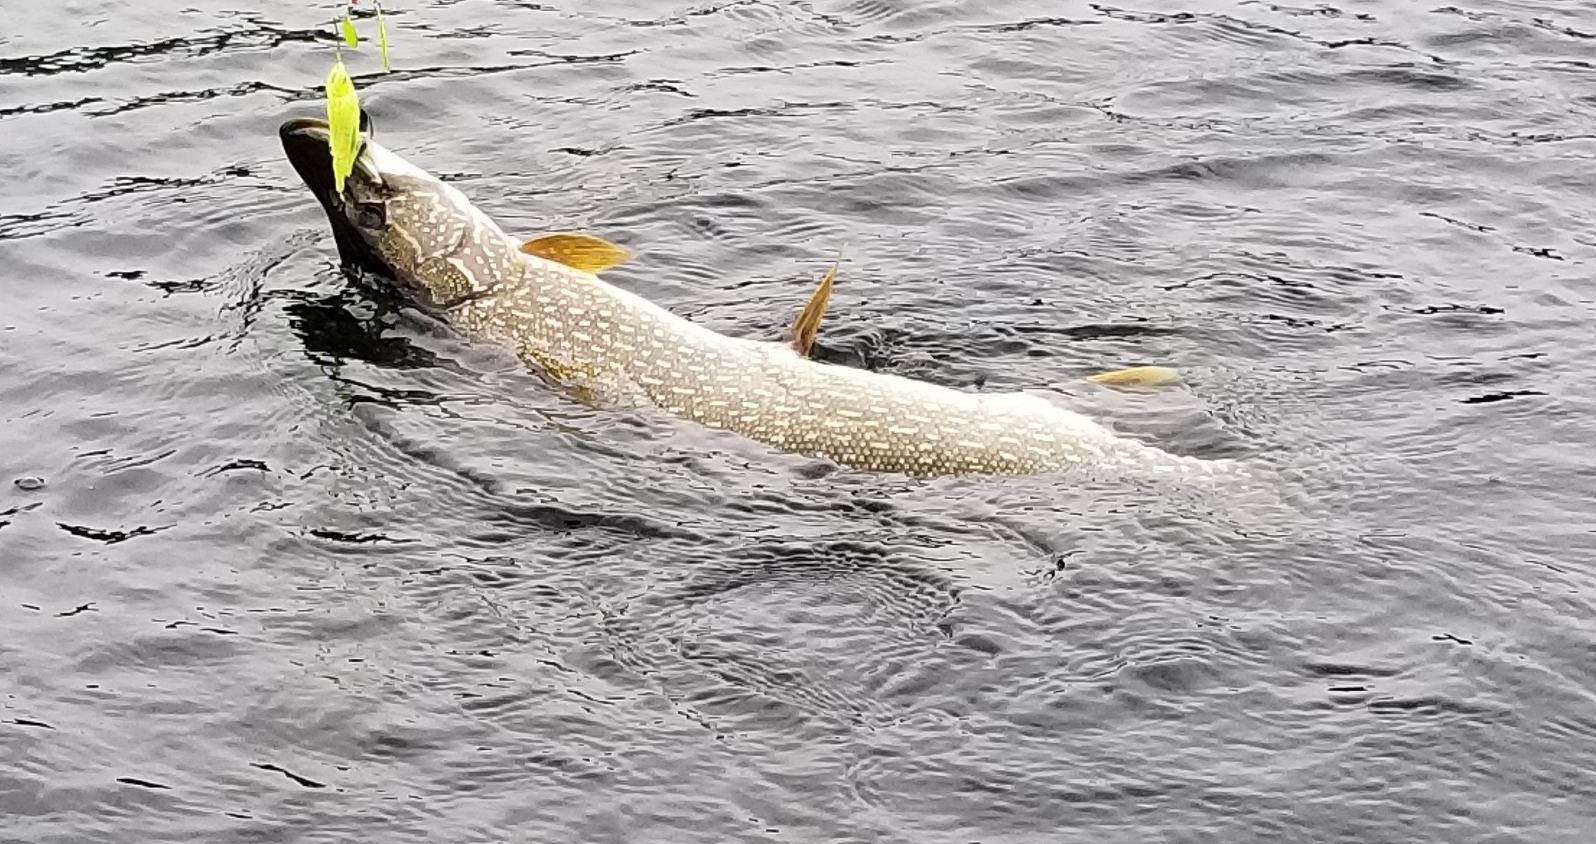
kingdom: Animalia
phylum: Chordata
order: Esociformes
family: Esocidae
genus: Esox
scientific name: Esox lucius
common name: Northern pike
